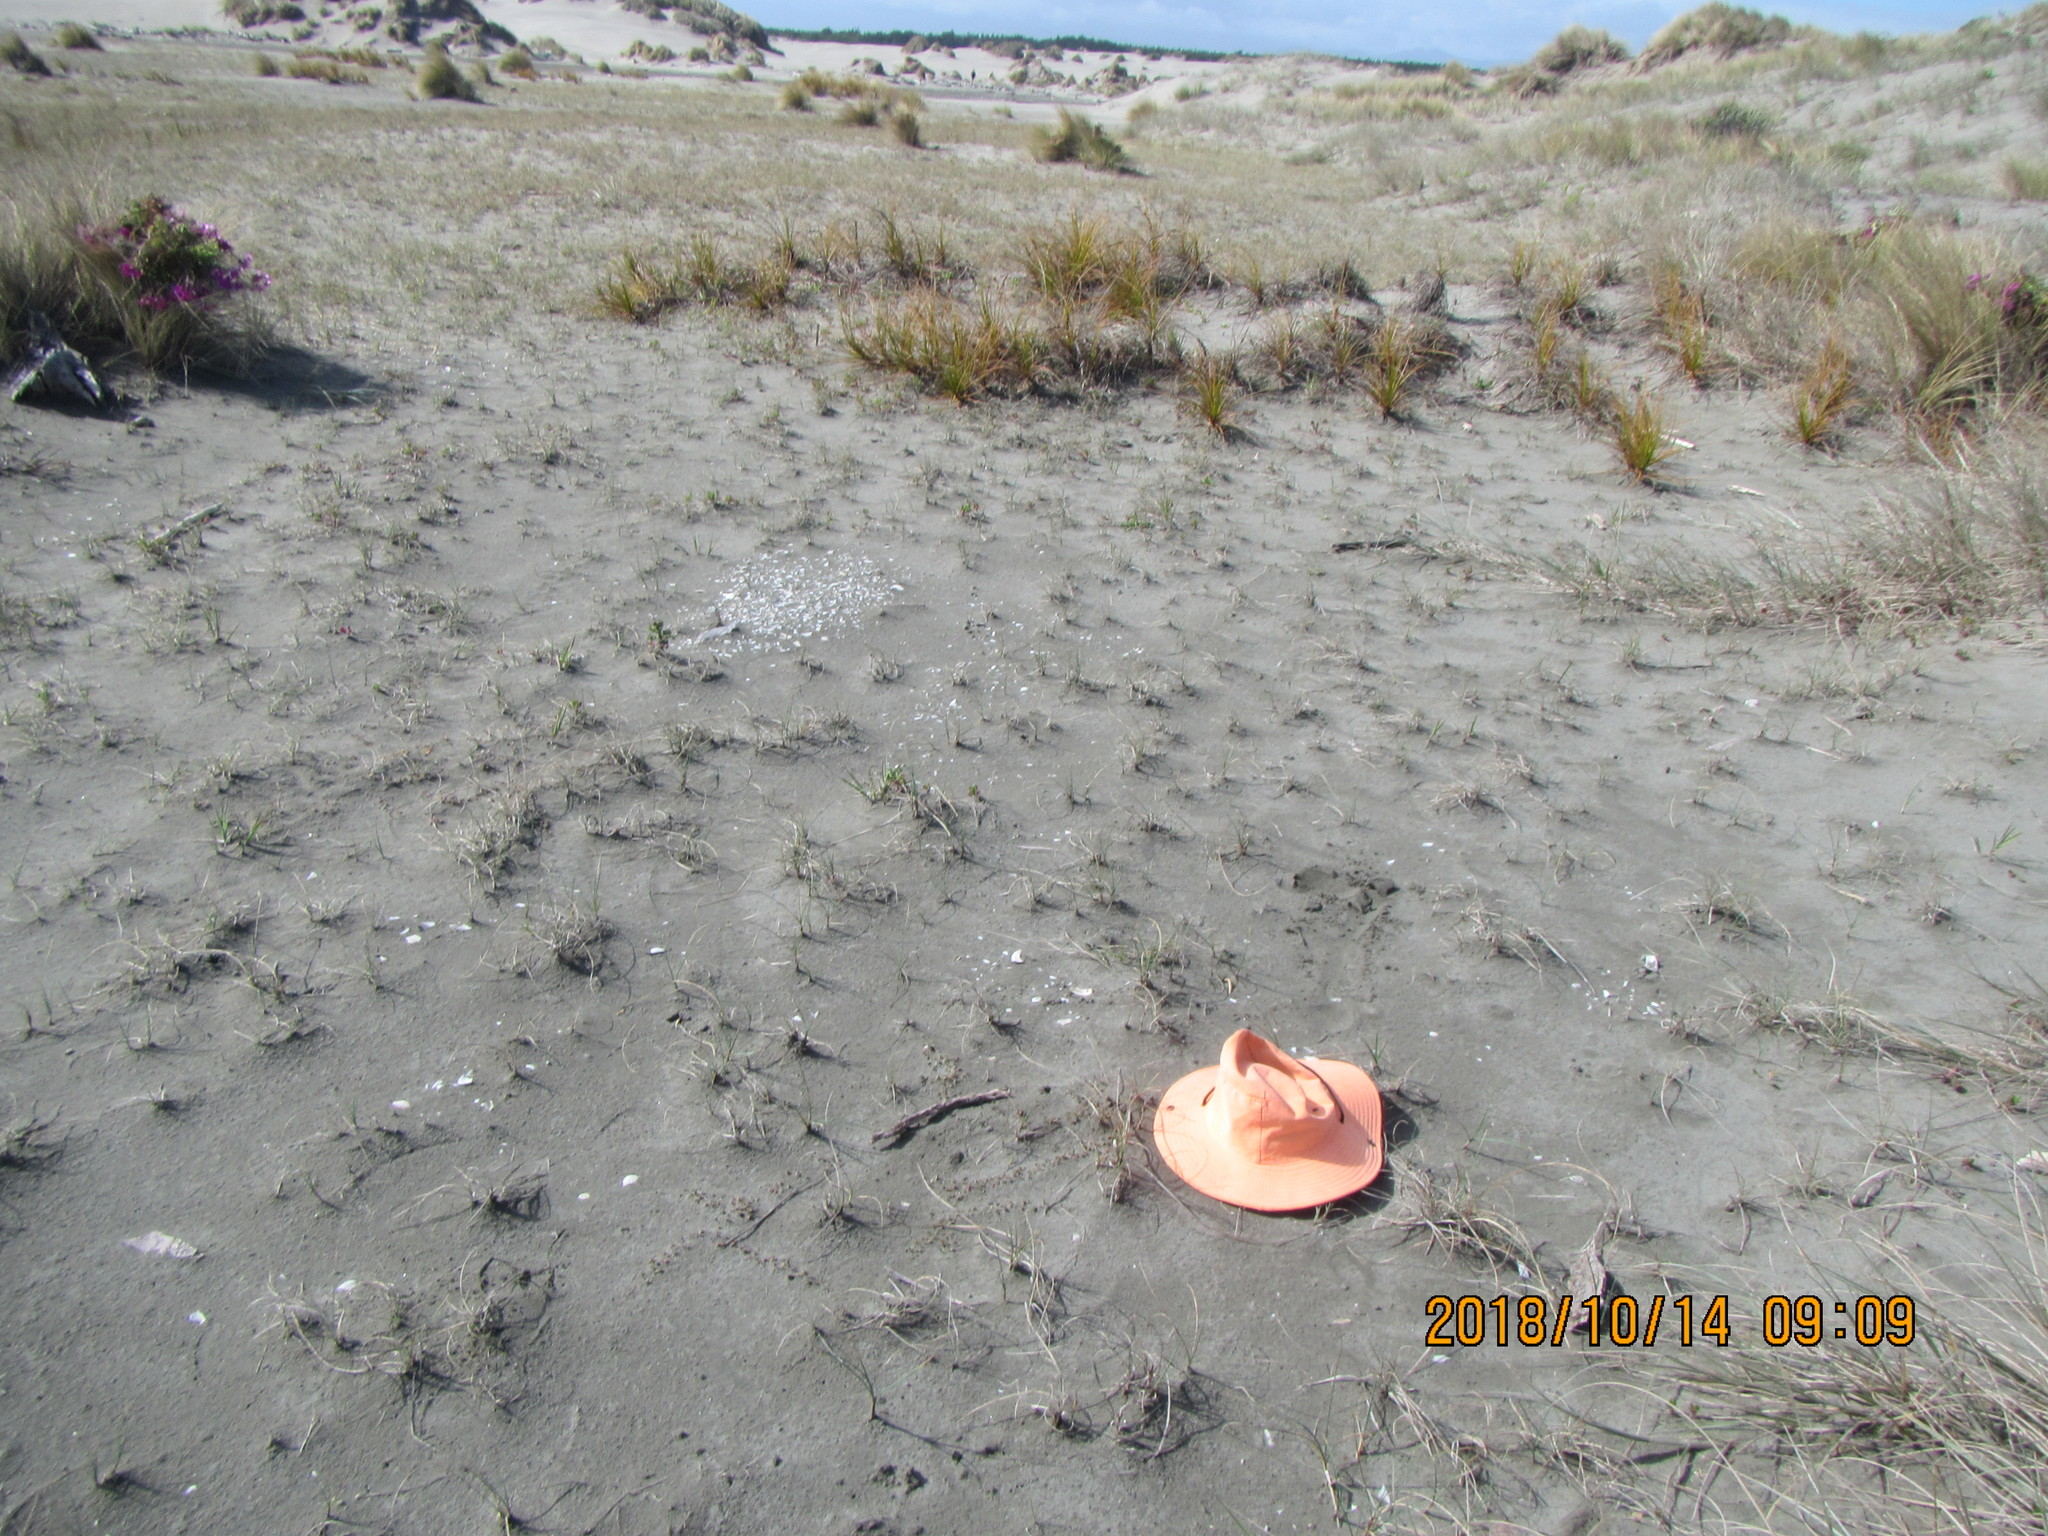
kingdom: Plantae
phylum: Tracheophyta
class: Magnoliopsida
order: Asterales
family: Goodeniaceae
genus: Goodenia
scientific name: Goodenia radicans
